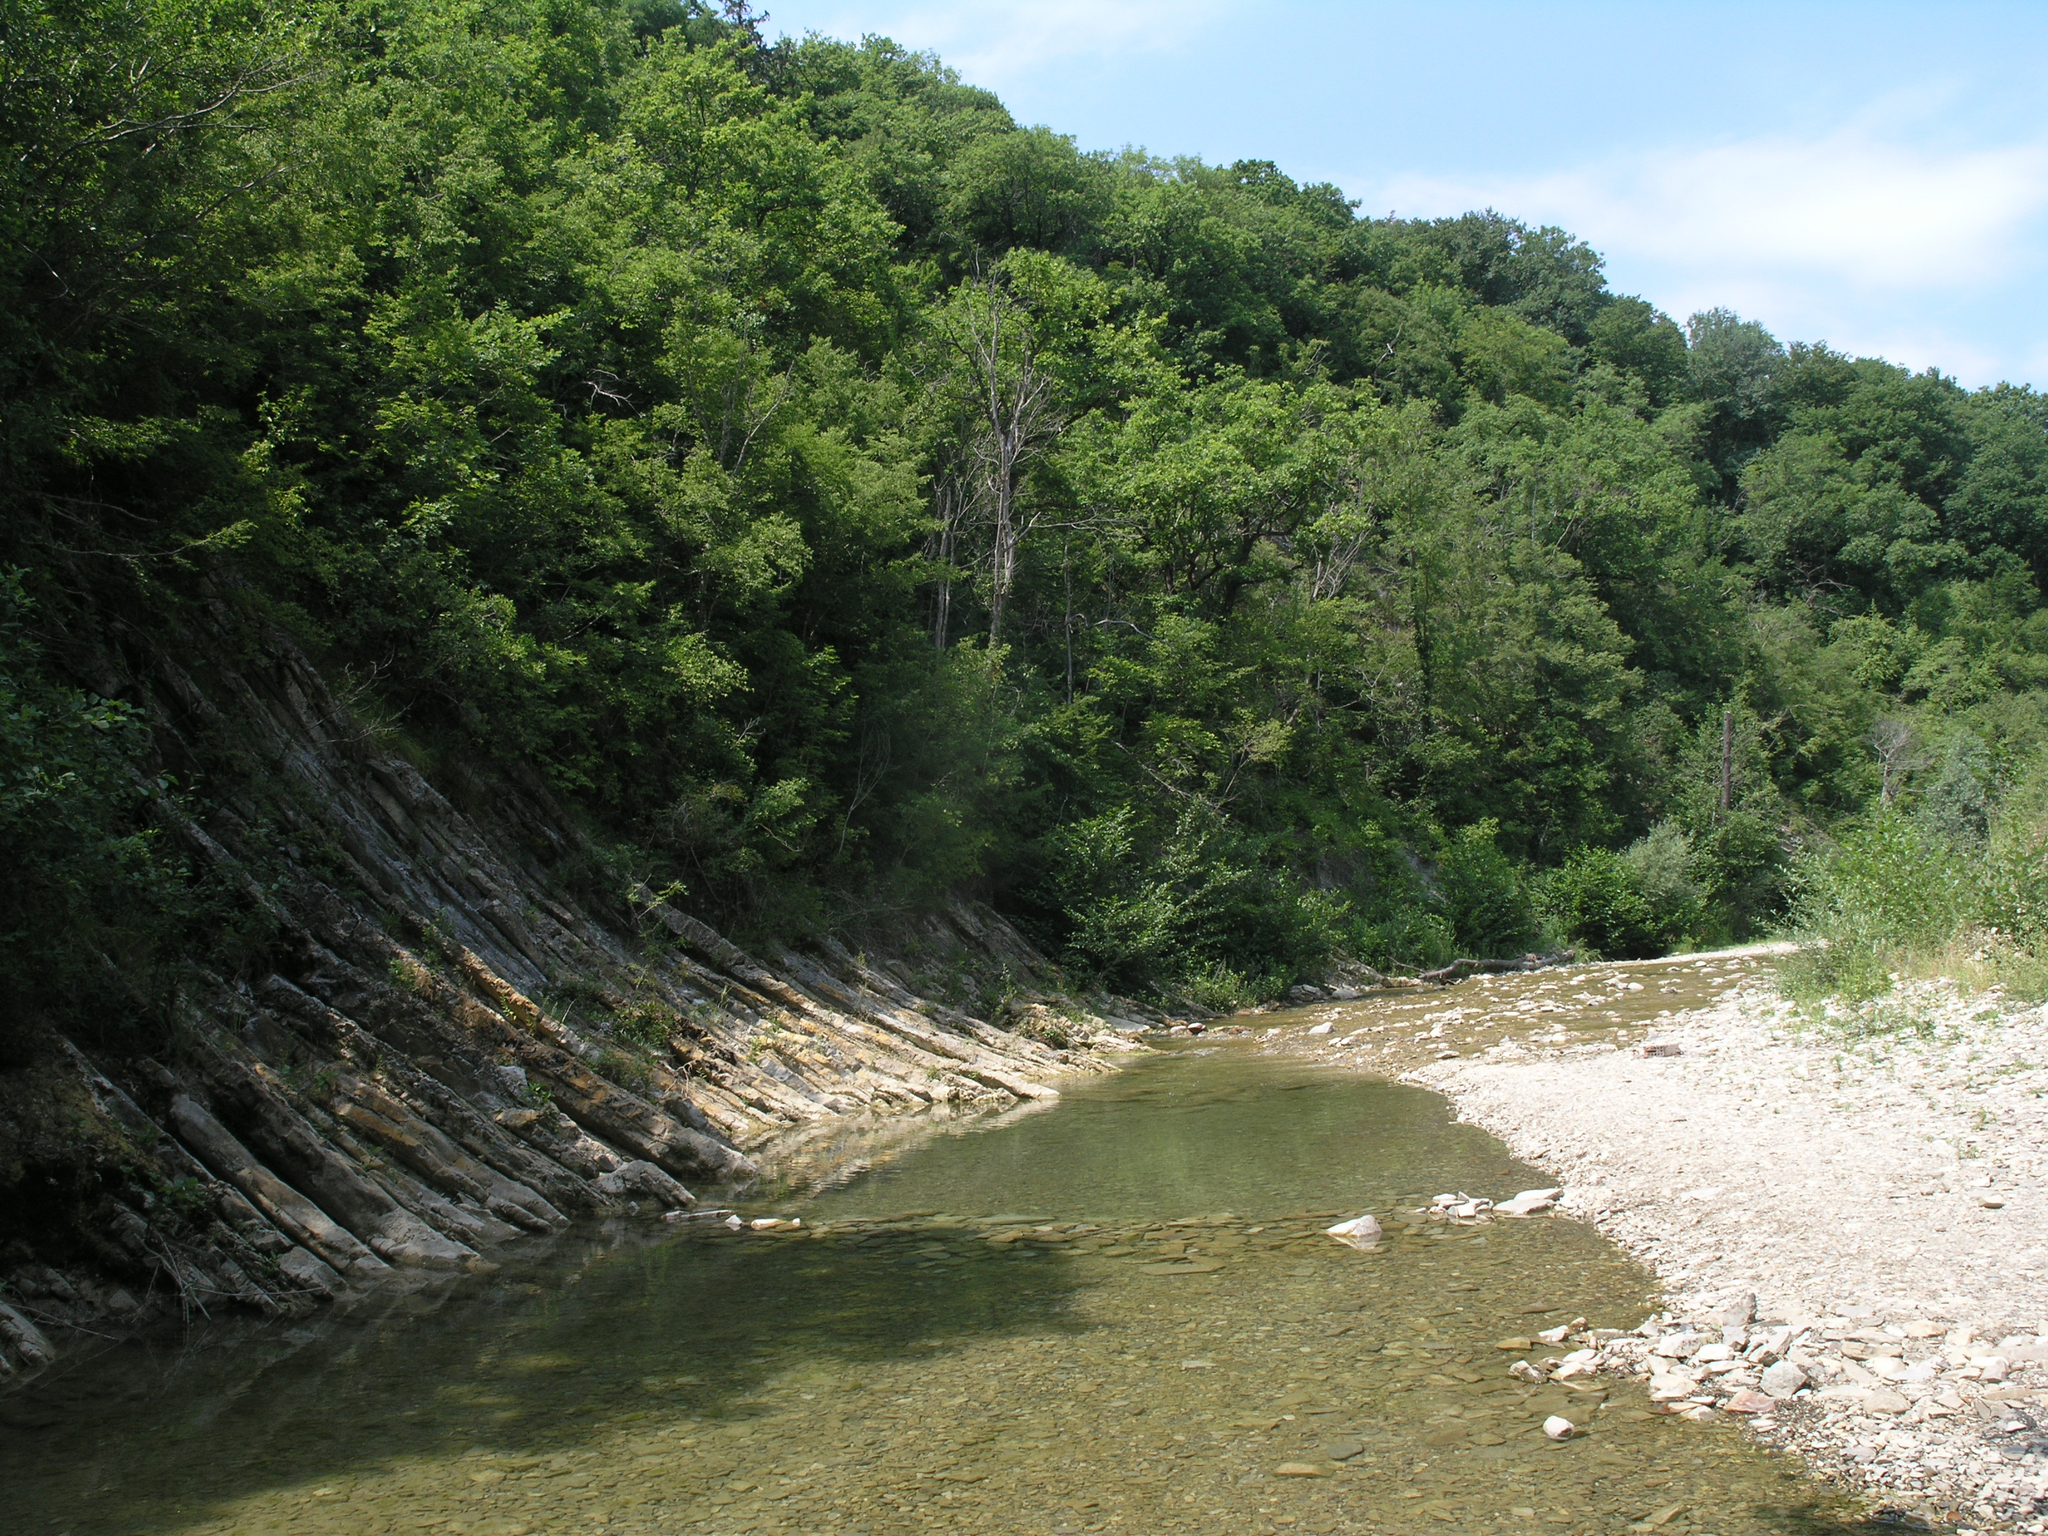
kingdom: Plantae
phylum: Tracheophyta
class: Magnoliopsida
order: Fagales
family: Betulaceae
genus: Carpinus
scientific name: Carpinus orientalis
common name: Eastern hornbeam
